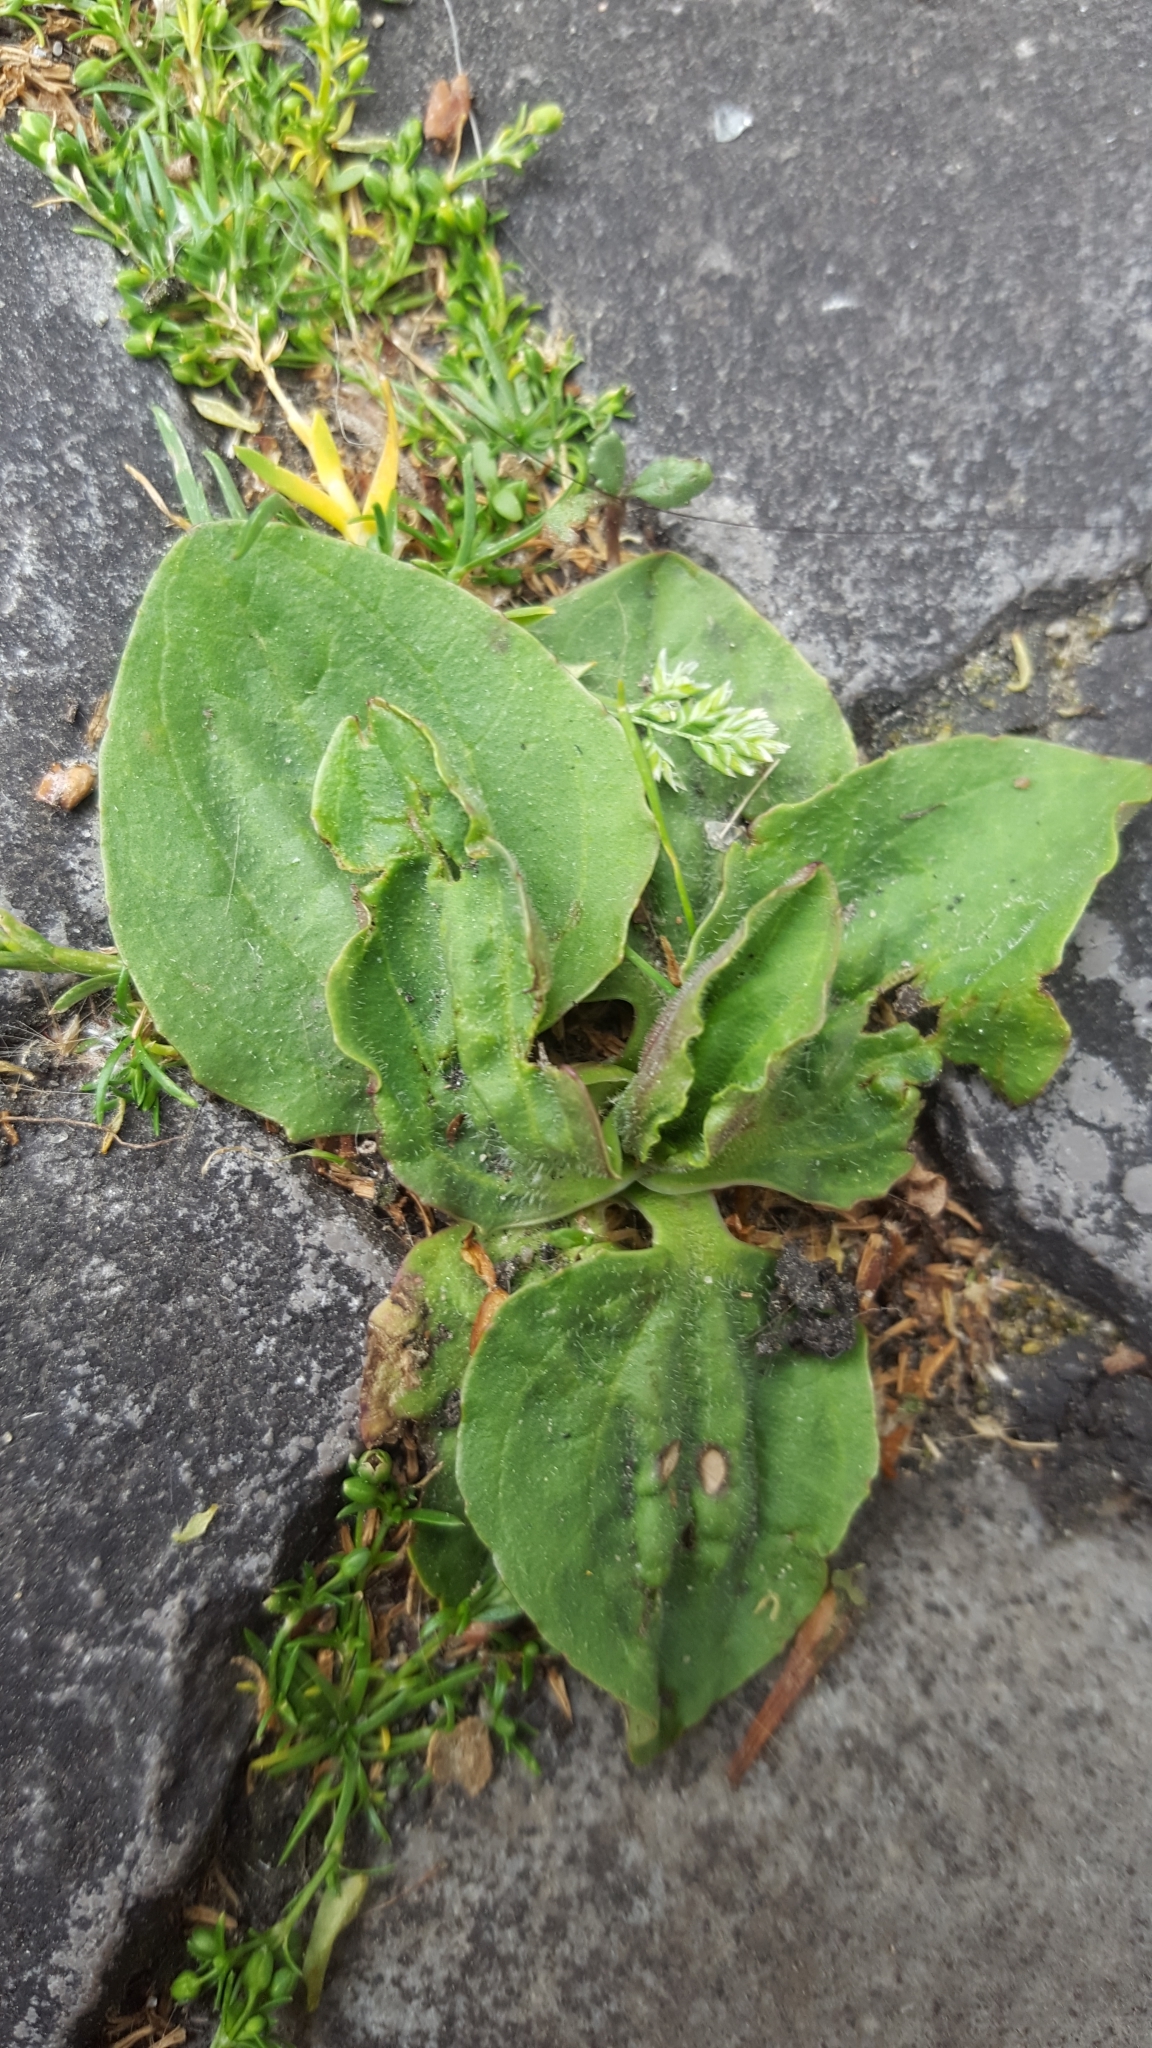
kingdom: Plantae
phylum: Tracheophyta
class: Magnoliopsida
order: Lamiales
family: Plantaginaceae
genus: Plantago
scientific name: Plantago major
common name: Common plantain
